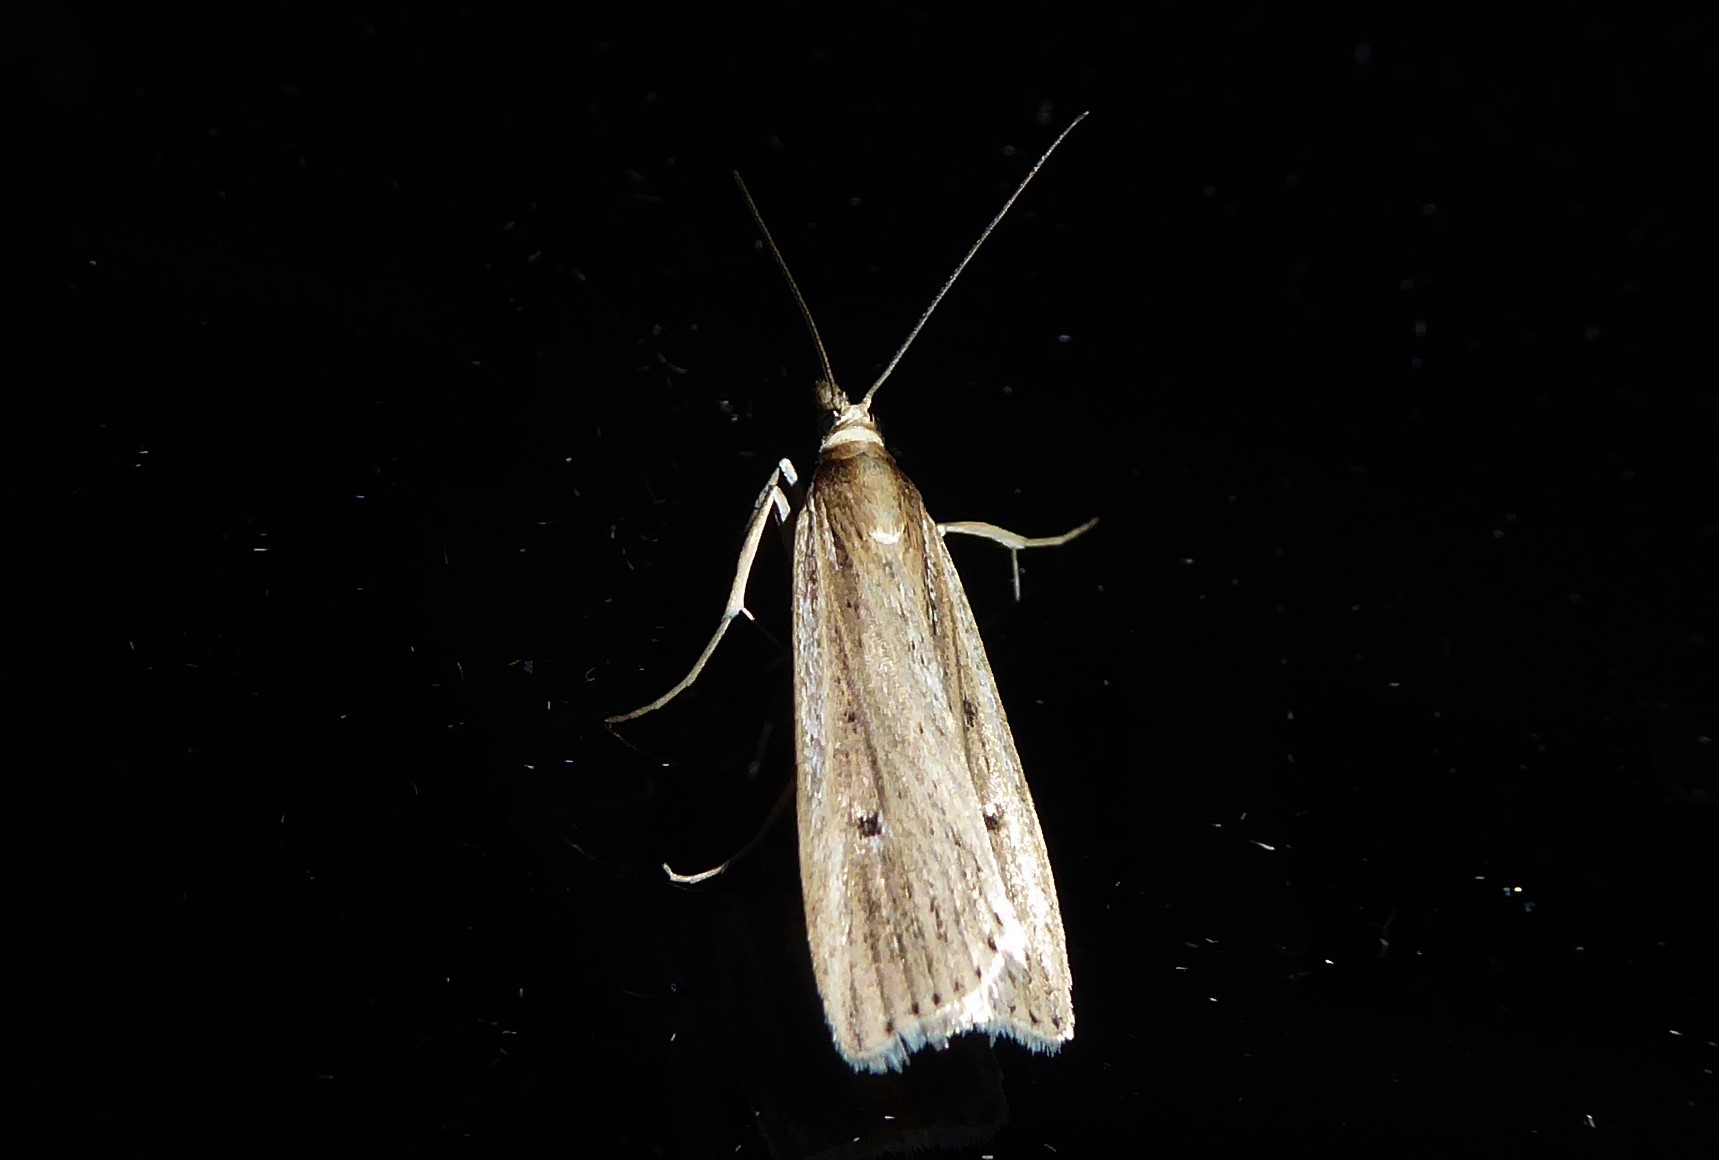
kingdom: Animalia
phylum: Arthropoda
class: Insecta
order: Lepidoptera
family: Crambidae
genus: Eudonia
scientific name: Eudonia sabulosella
